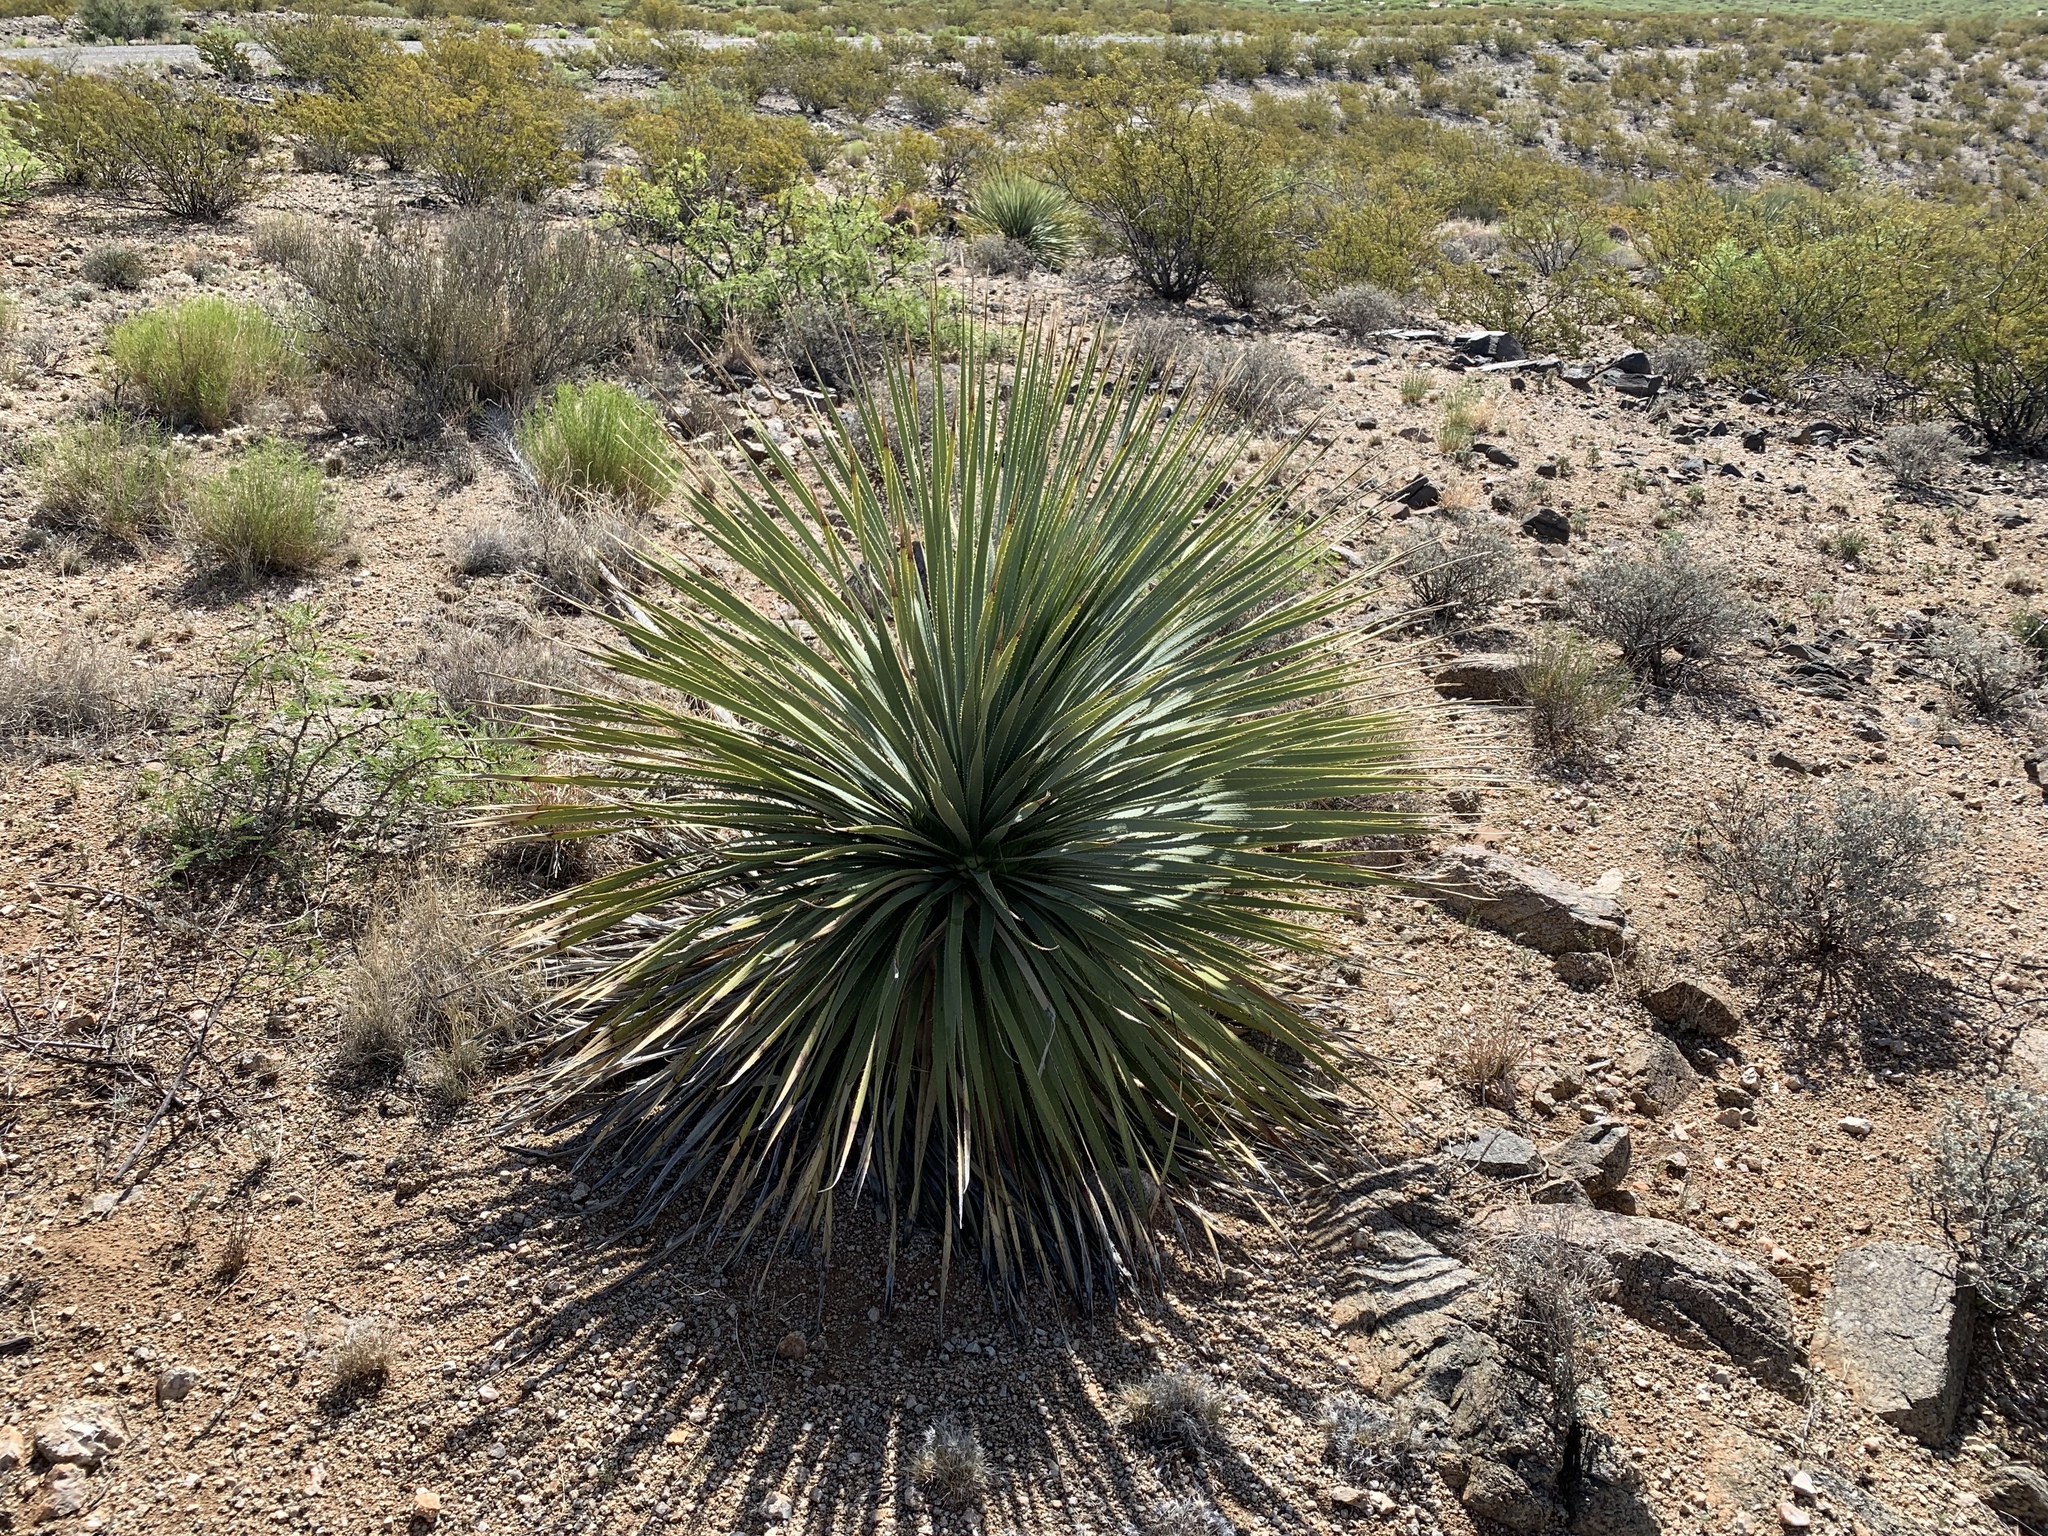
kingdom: Plantae
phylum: Tracheophyta
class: Liliopsida
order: Asparagales
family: Asparagaceae
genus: Dasylirion
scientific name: Dasylirion wheeleri
